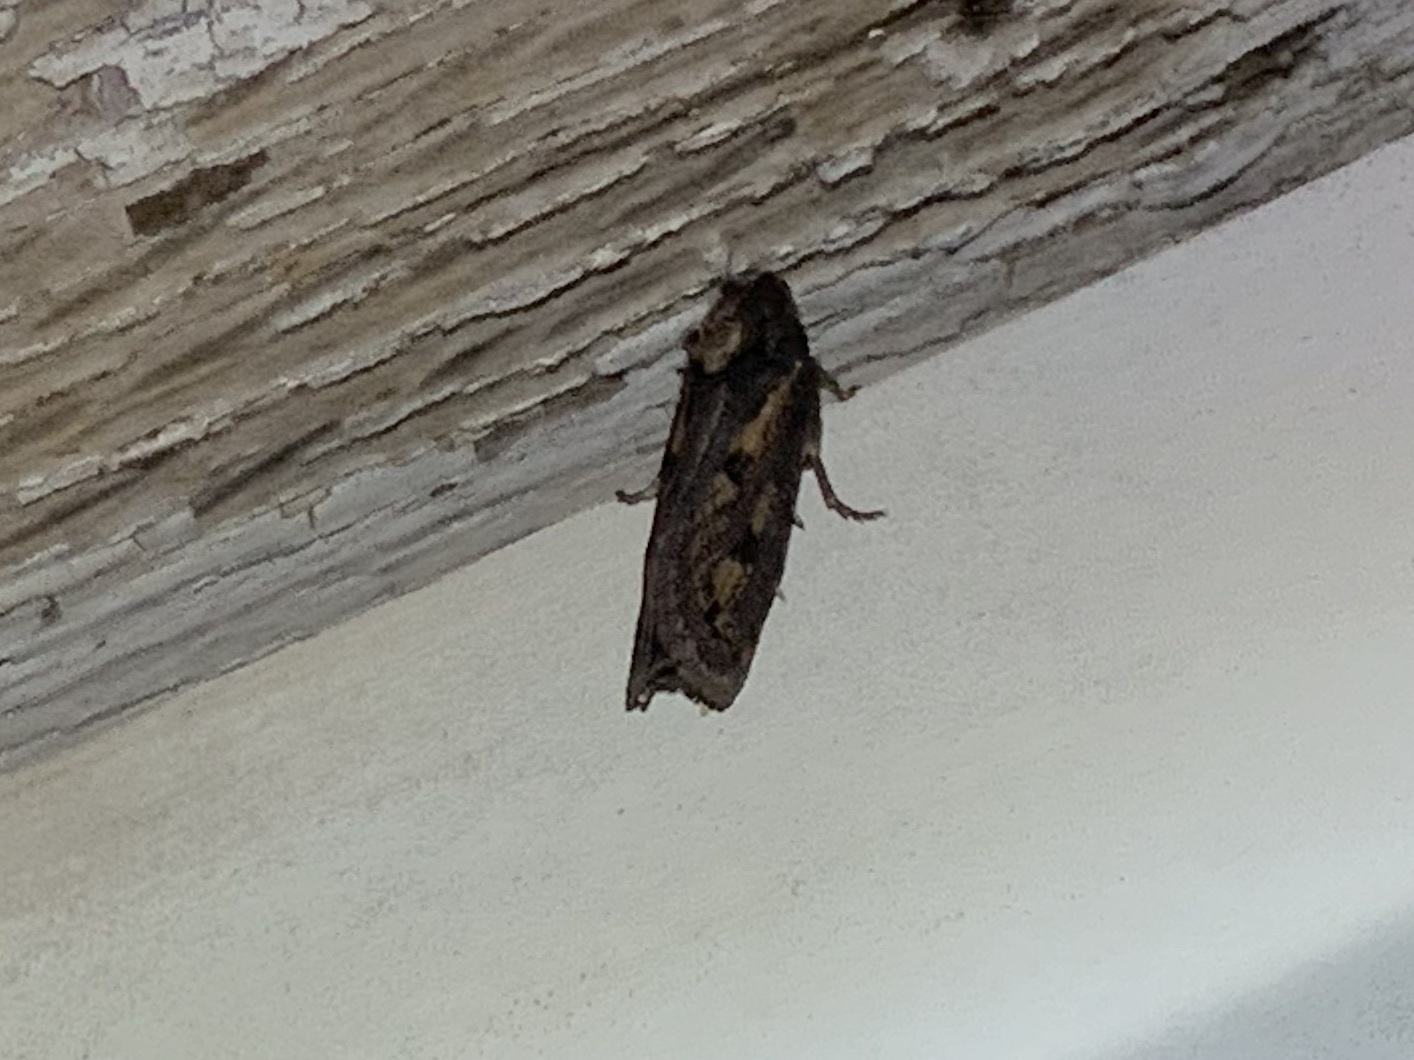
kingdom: Animalia
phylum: Arthropoda
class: Insecta
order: Lepidoptera
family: Tineidae
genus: Acrolophus
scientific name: Acrolophus popeanella
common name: Clemens' grass tubeworm moth
